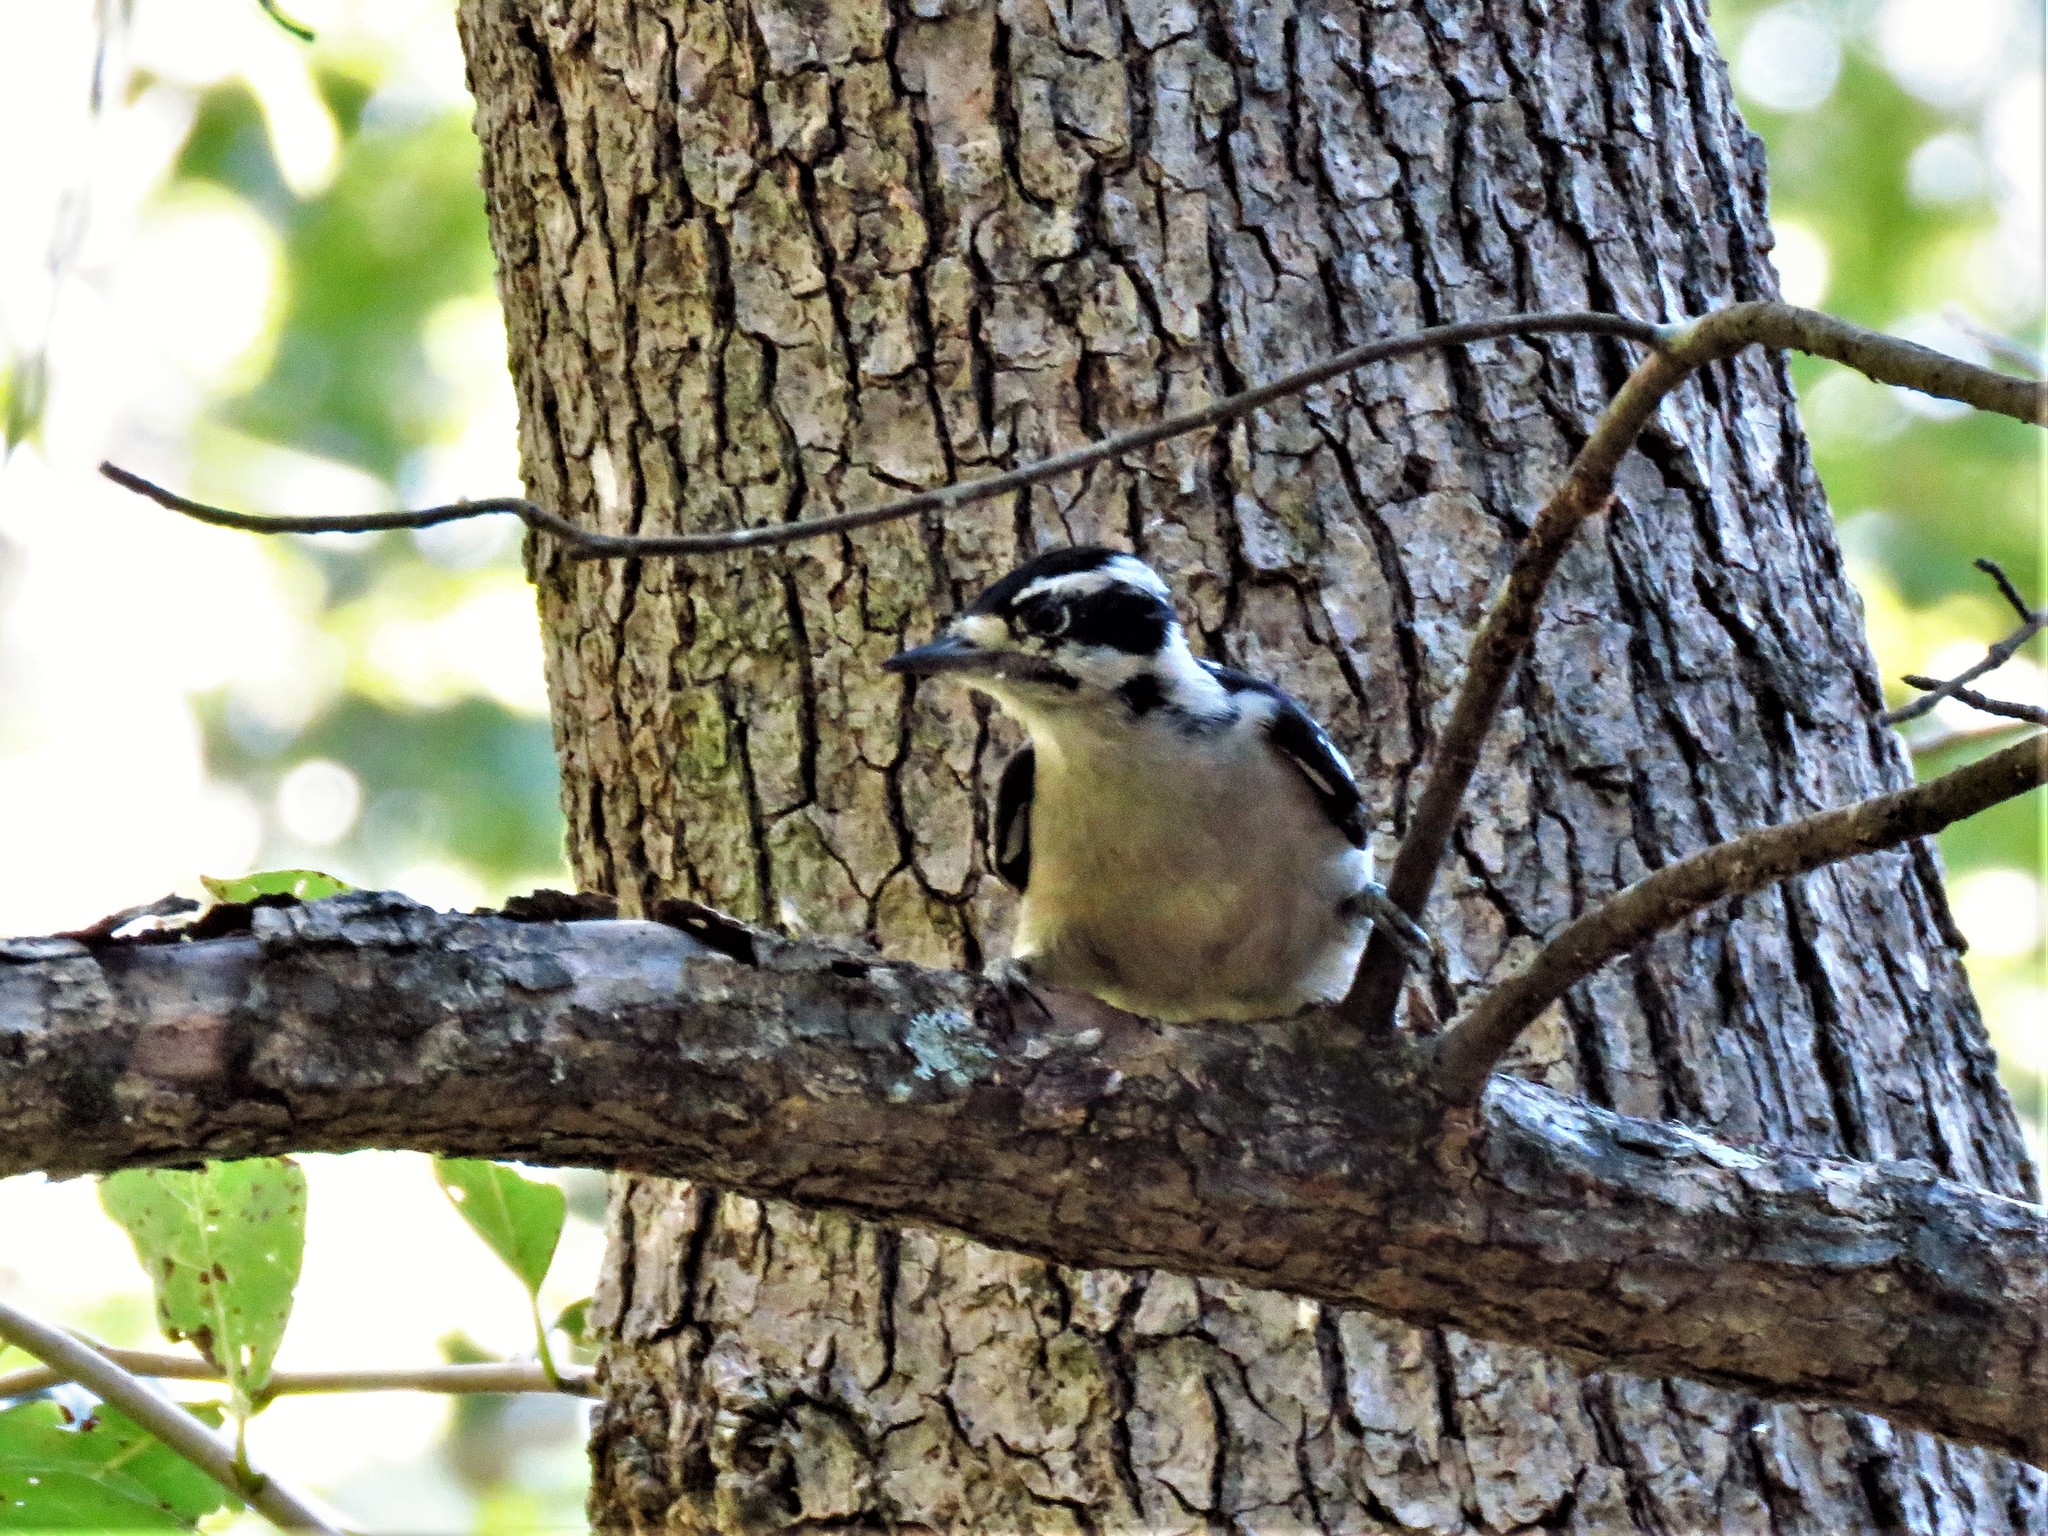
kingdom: Animalia
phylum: Chordata
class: Aves
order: Piciformes
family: Picidae
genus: Dryobates
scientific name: Dryobates pubescens
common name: Downy woodpecker
